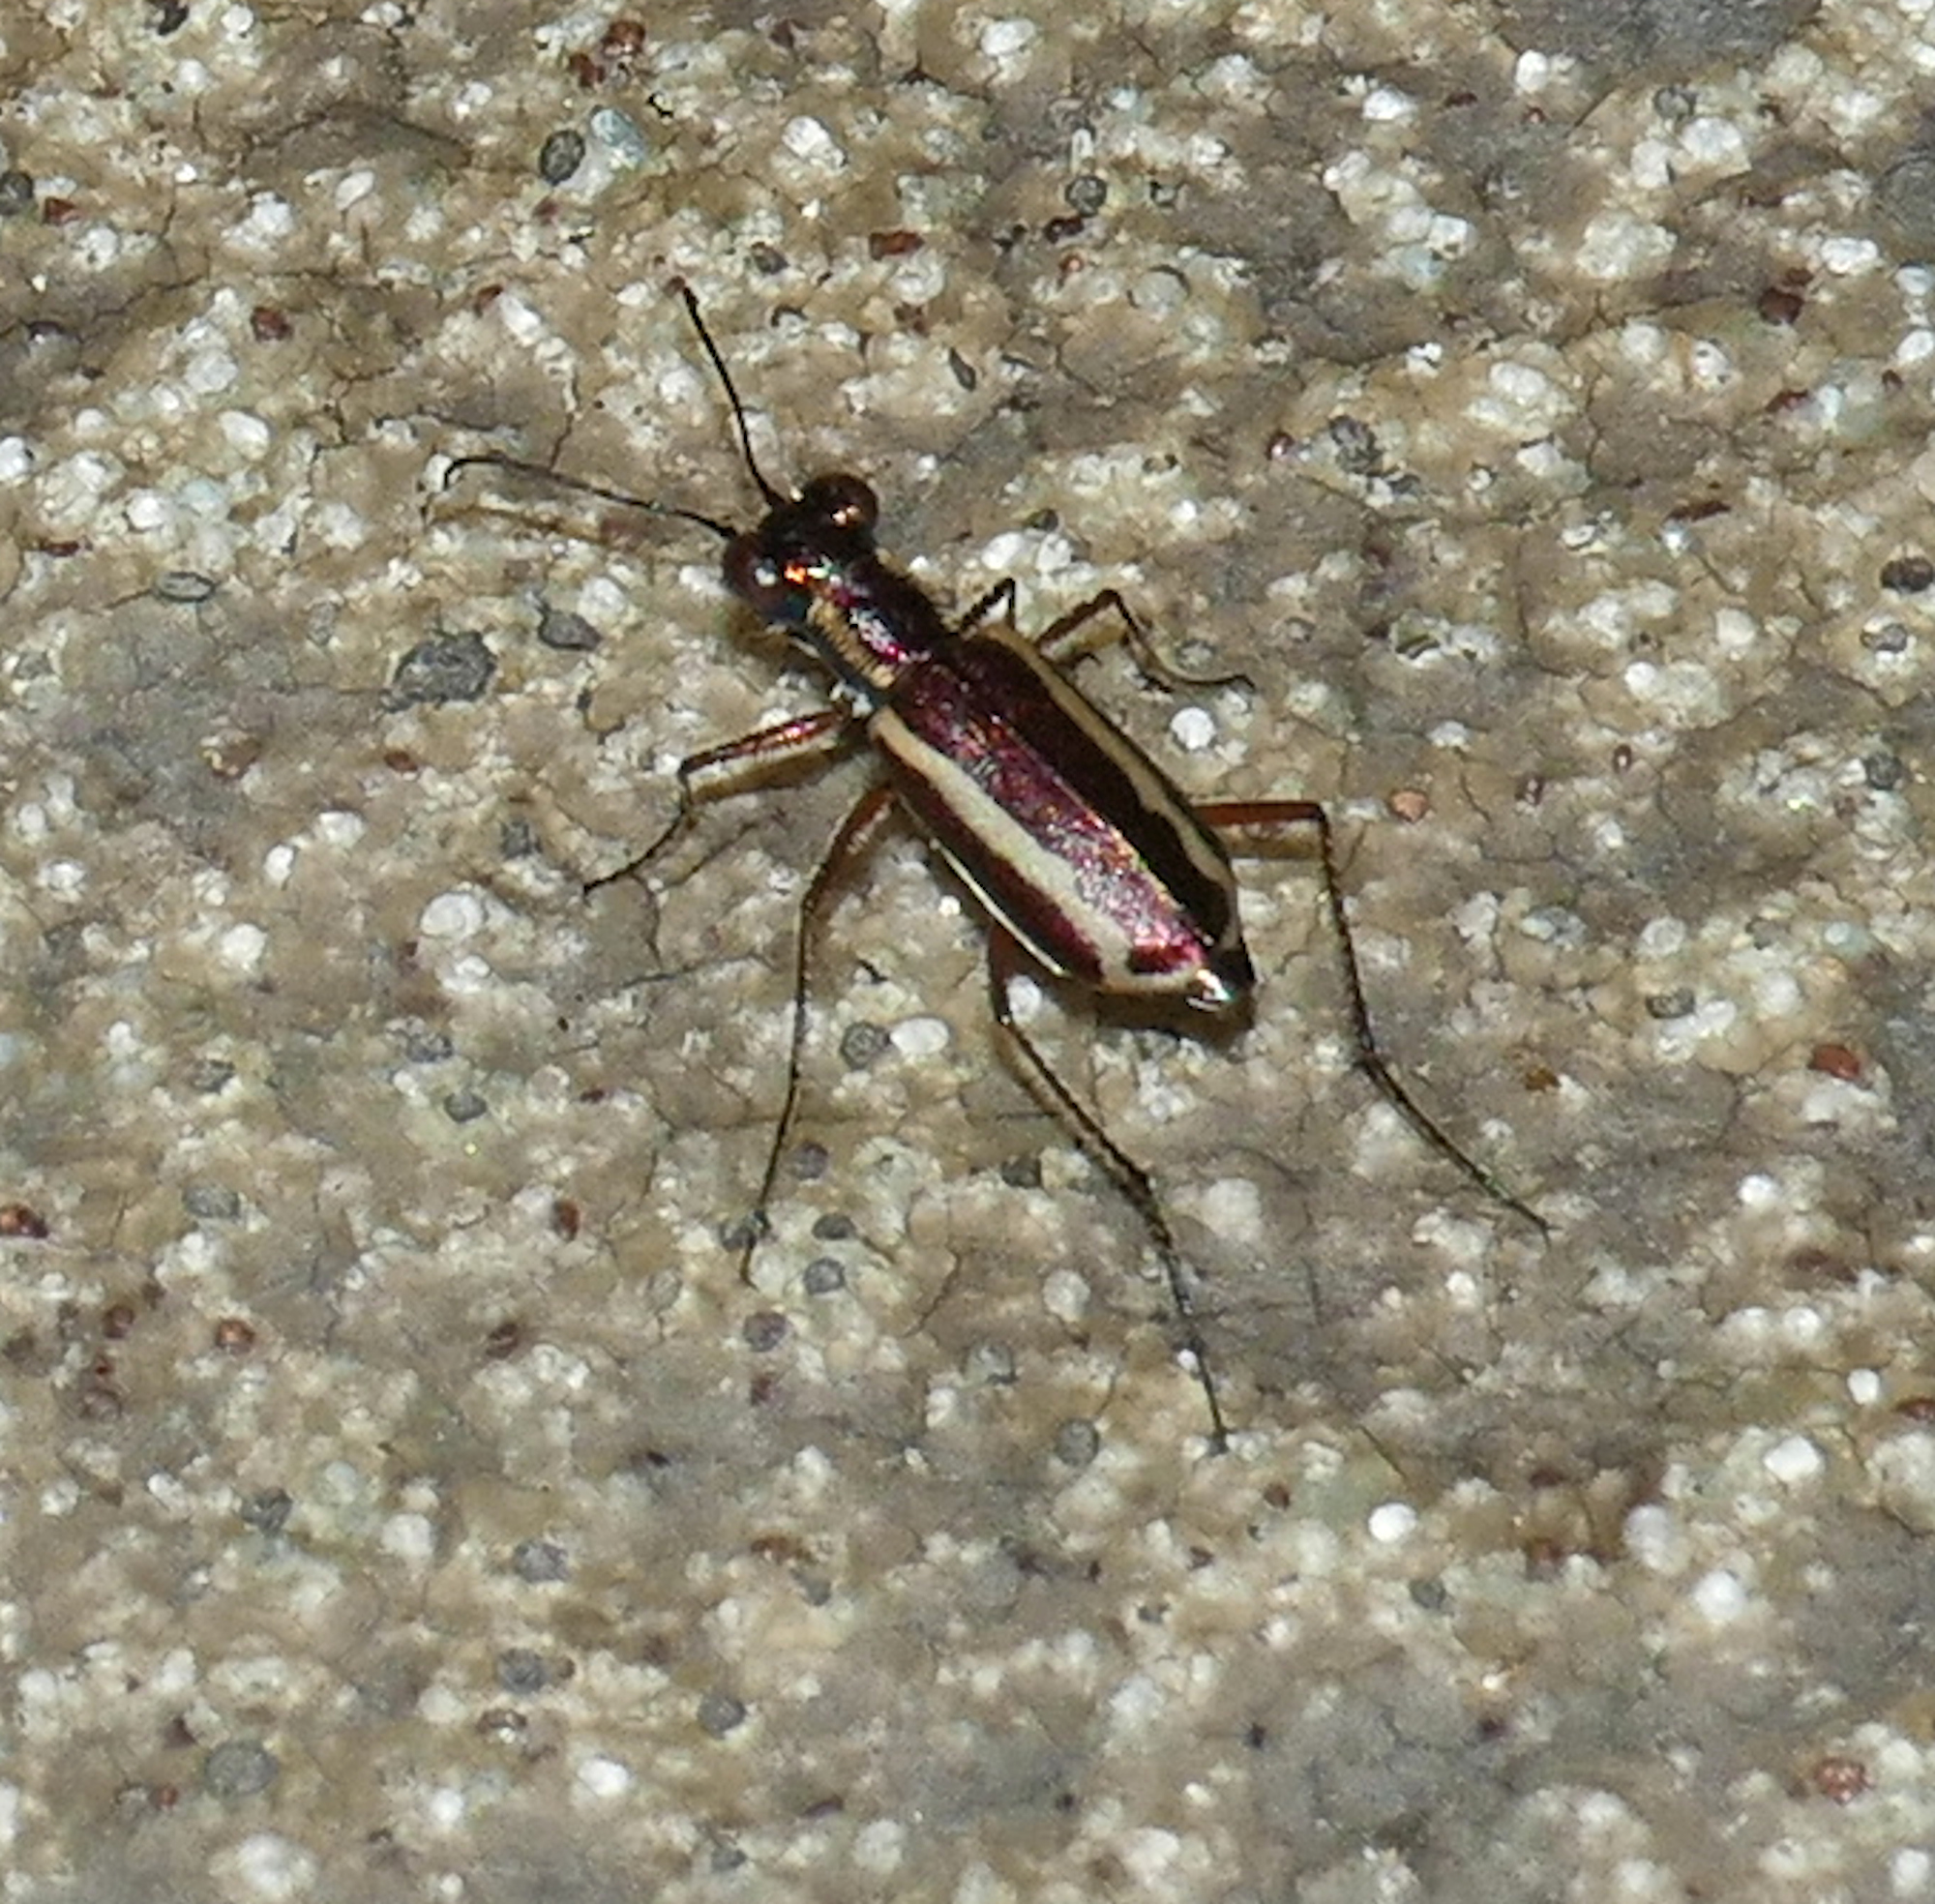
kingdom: Animalia
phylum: Arthropoda
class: Insecta
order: Coleoptera
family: Carabidae
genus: Cylindera
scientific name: Cylindera lemniscata
